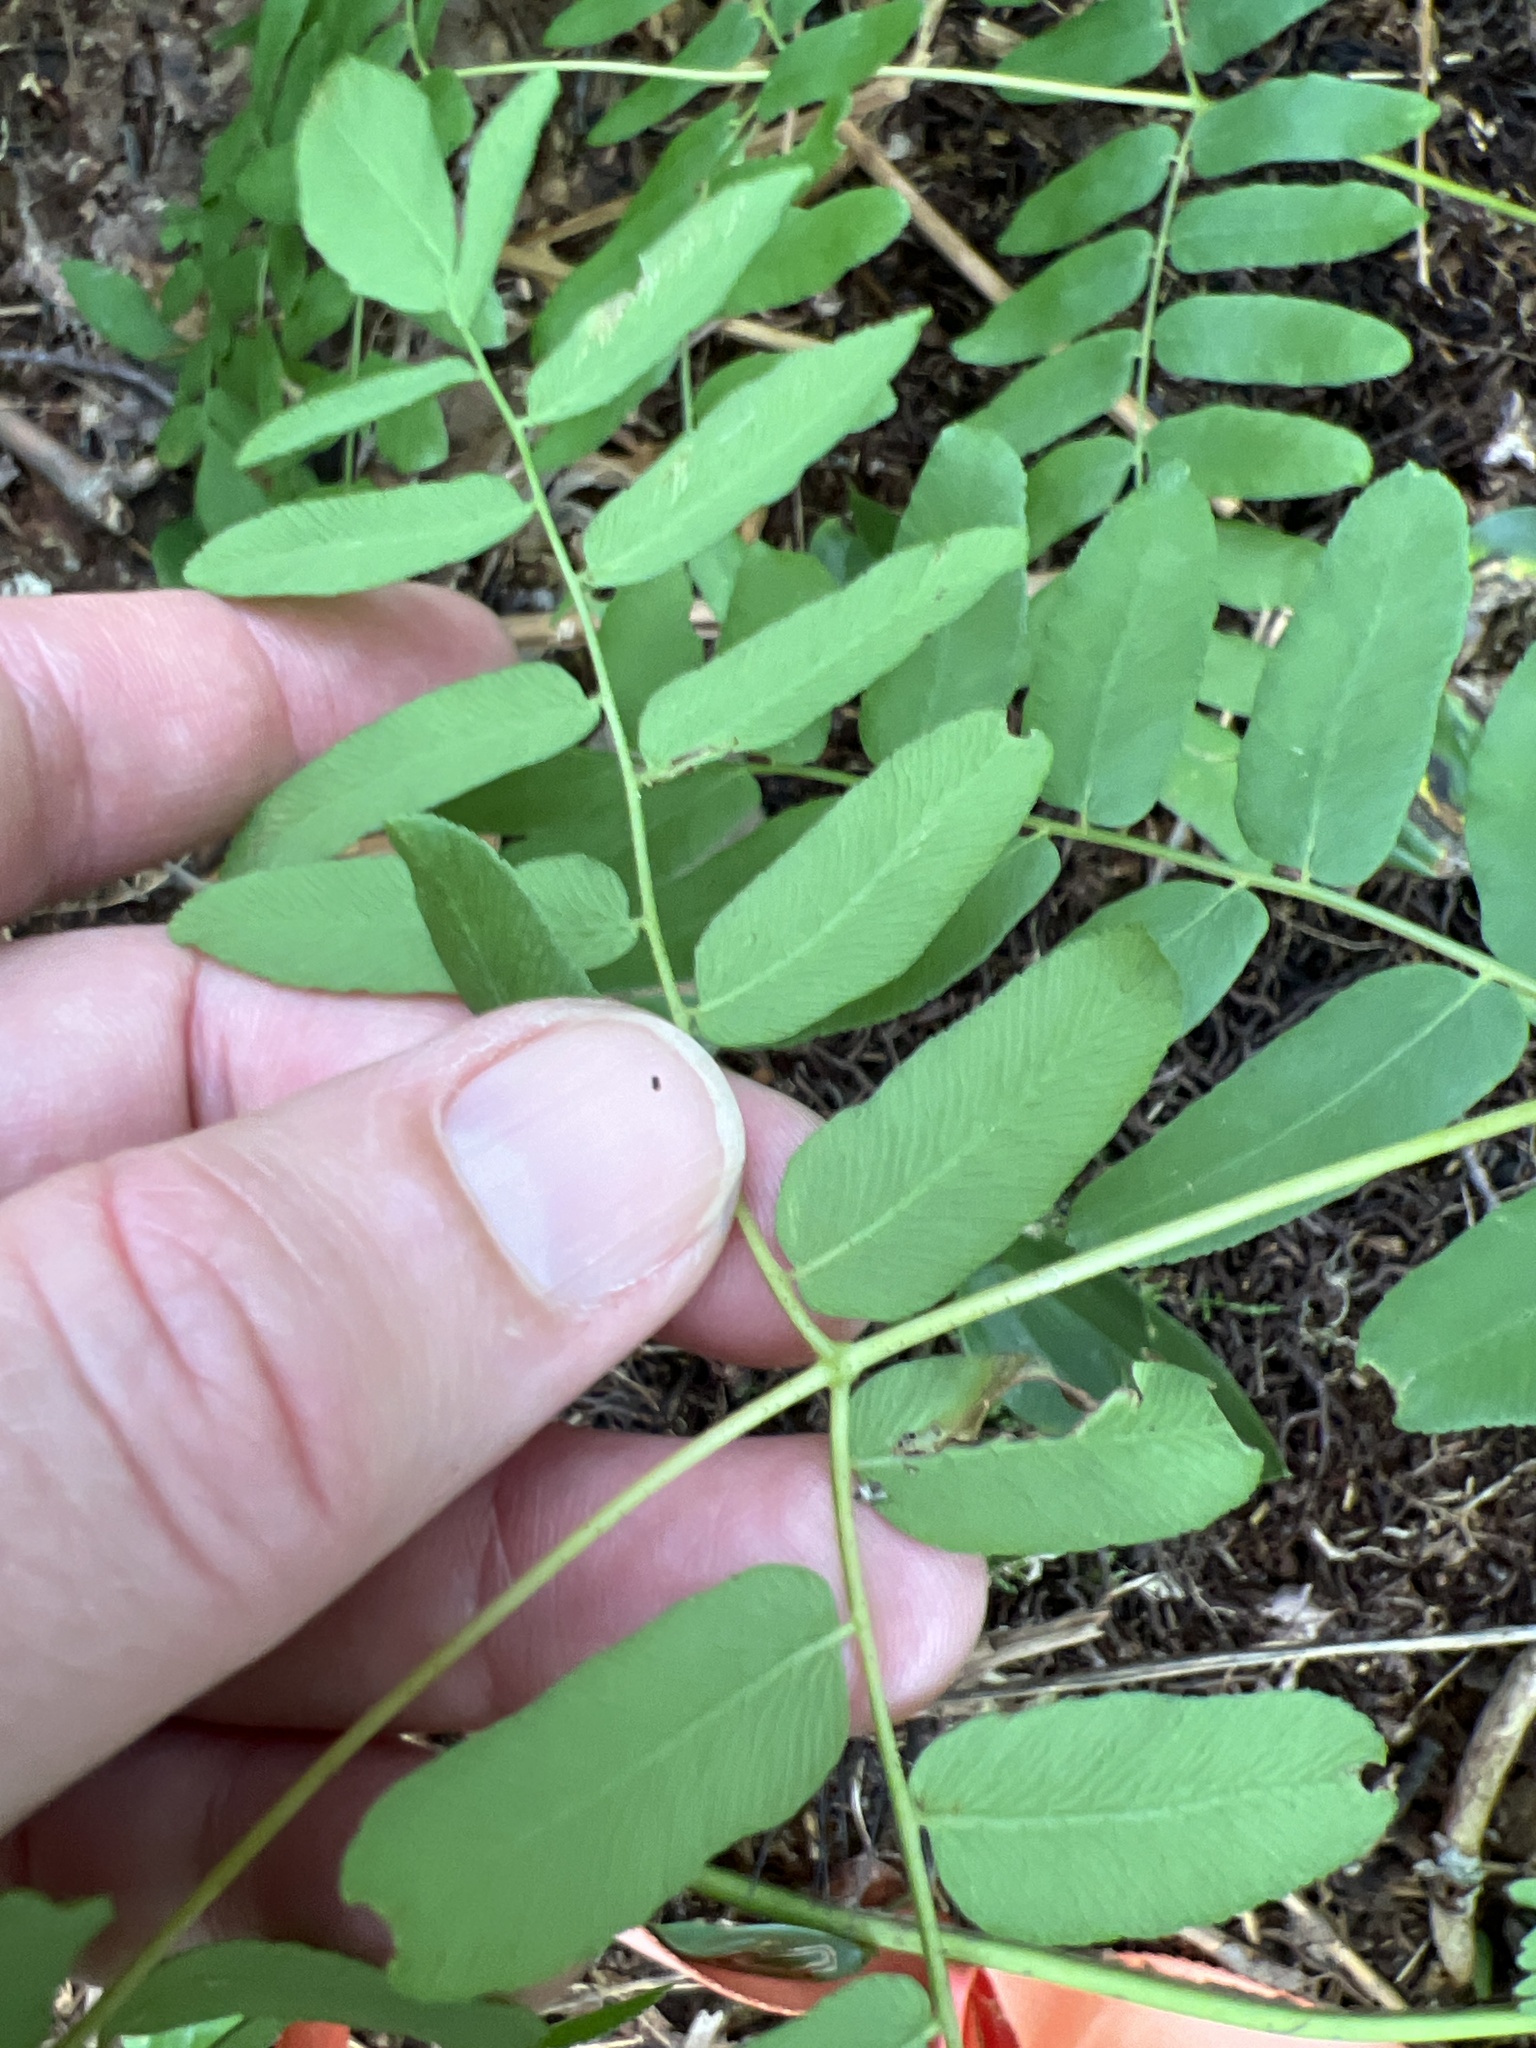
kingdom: Plantae
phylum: Tracheophyta
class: Polypodiopsida
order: Osmundales
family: Osmundaceae
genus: Osmunda
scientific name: Osmunda spectabilis
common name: American royal fern
